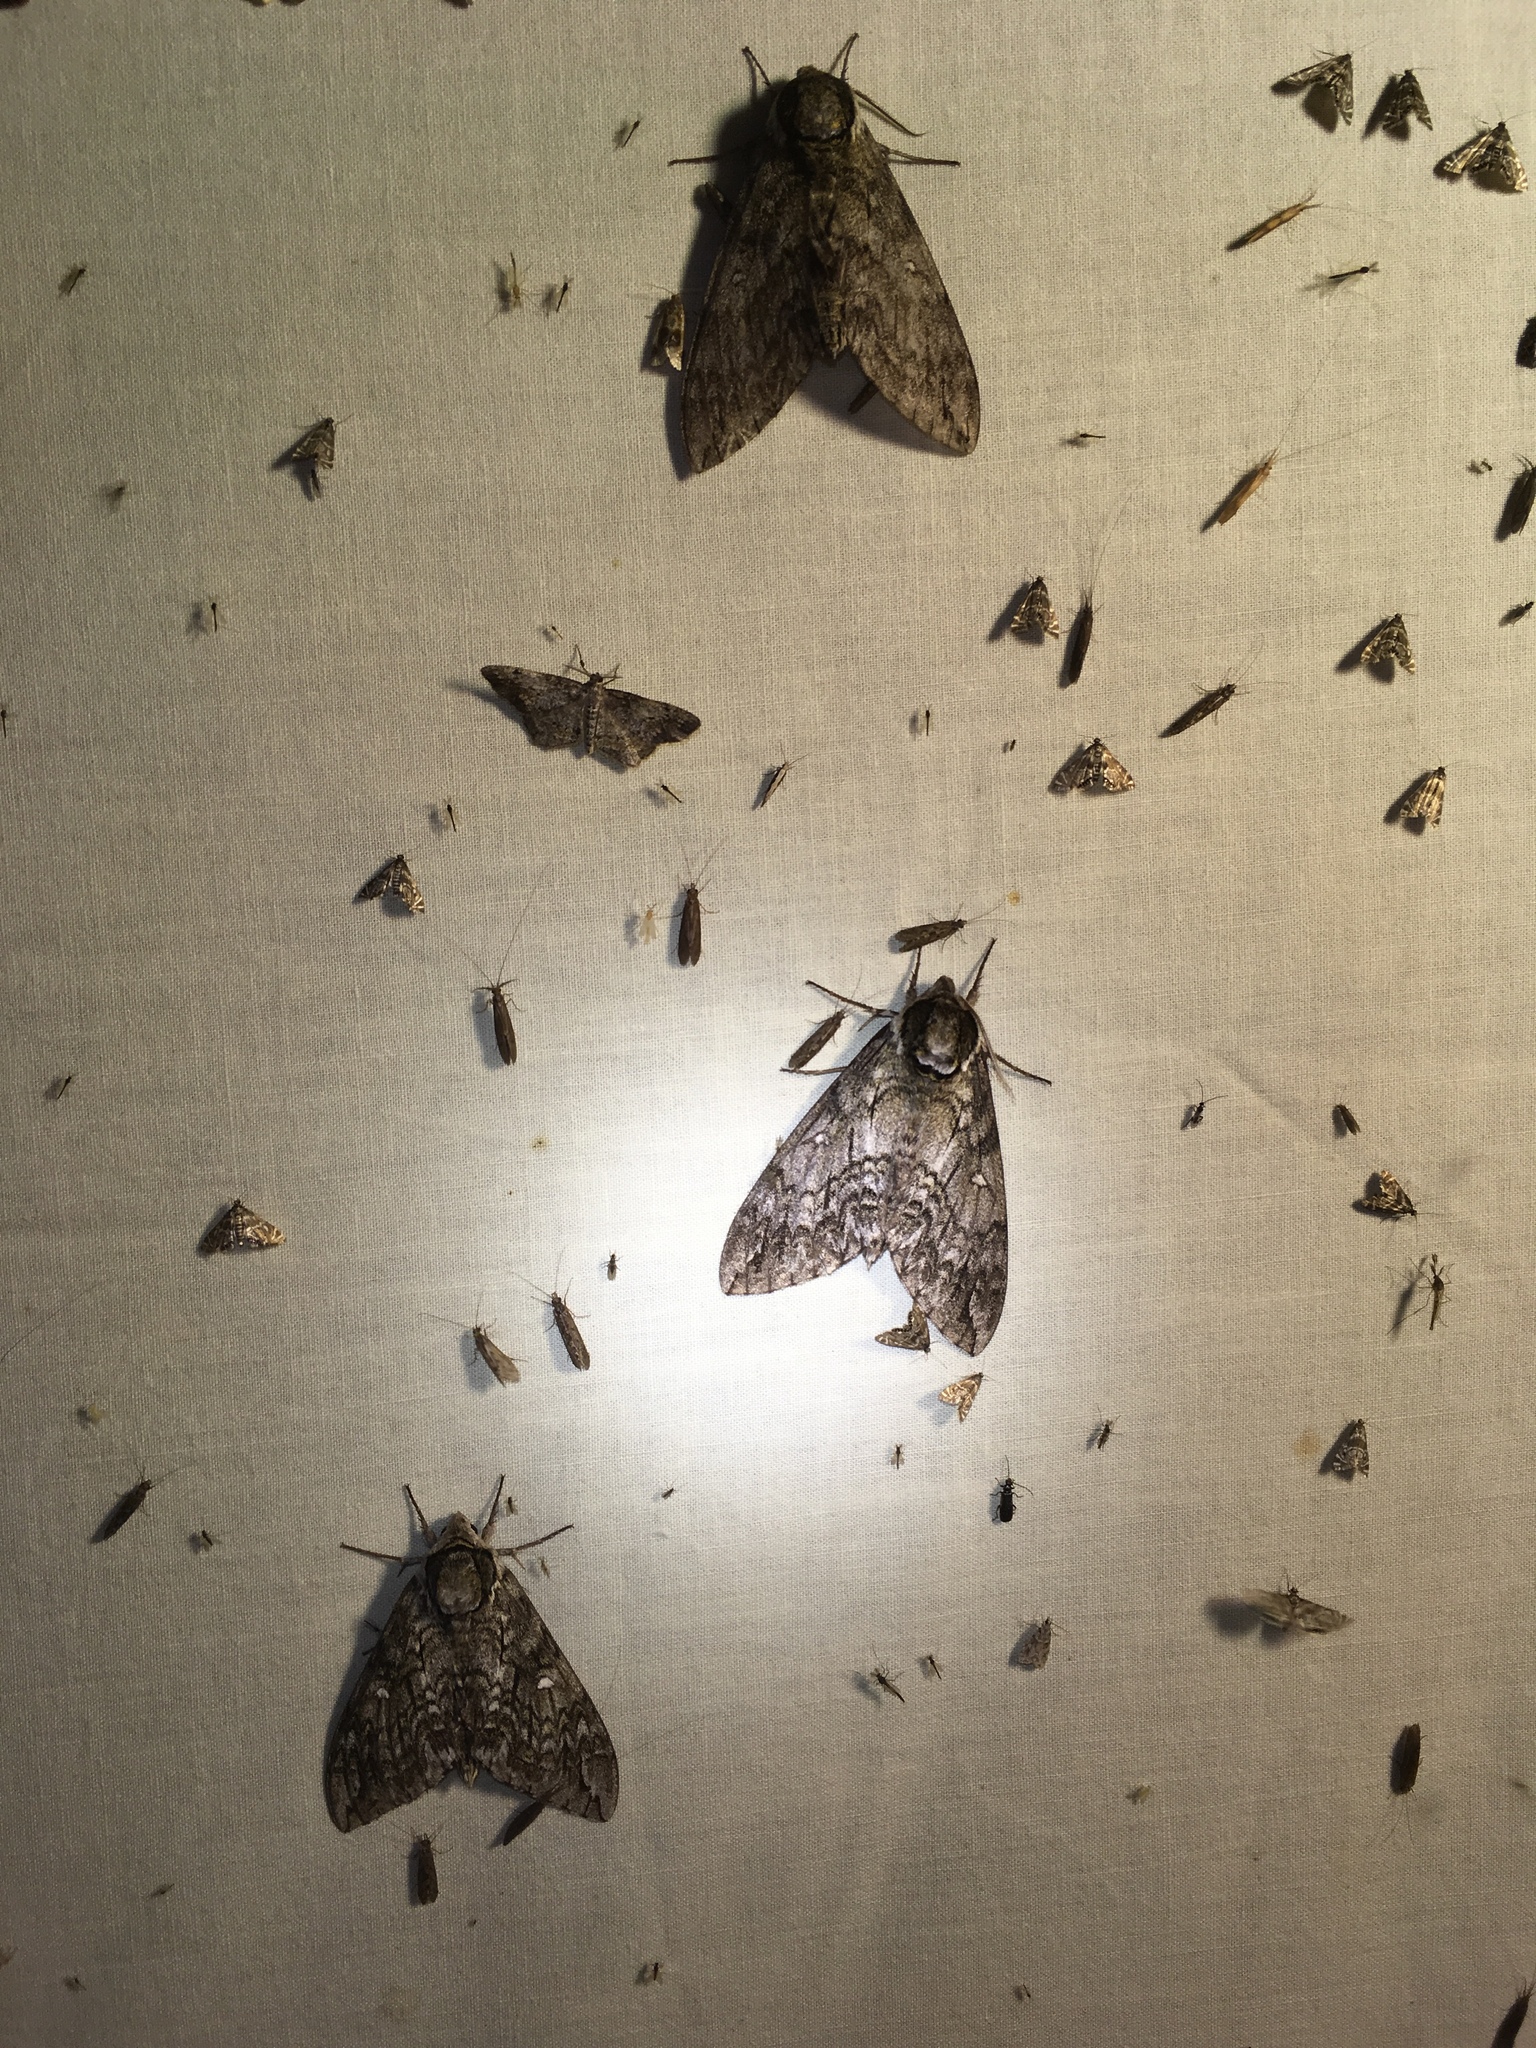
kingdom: Animalia
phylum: Arthropoda
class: Insecta
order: Lepidoptera
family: Sphingidae
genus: Ceratomia
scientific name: Ceratomia undulosa
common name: Waved sphinx
